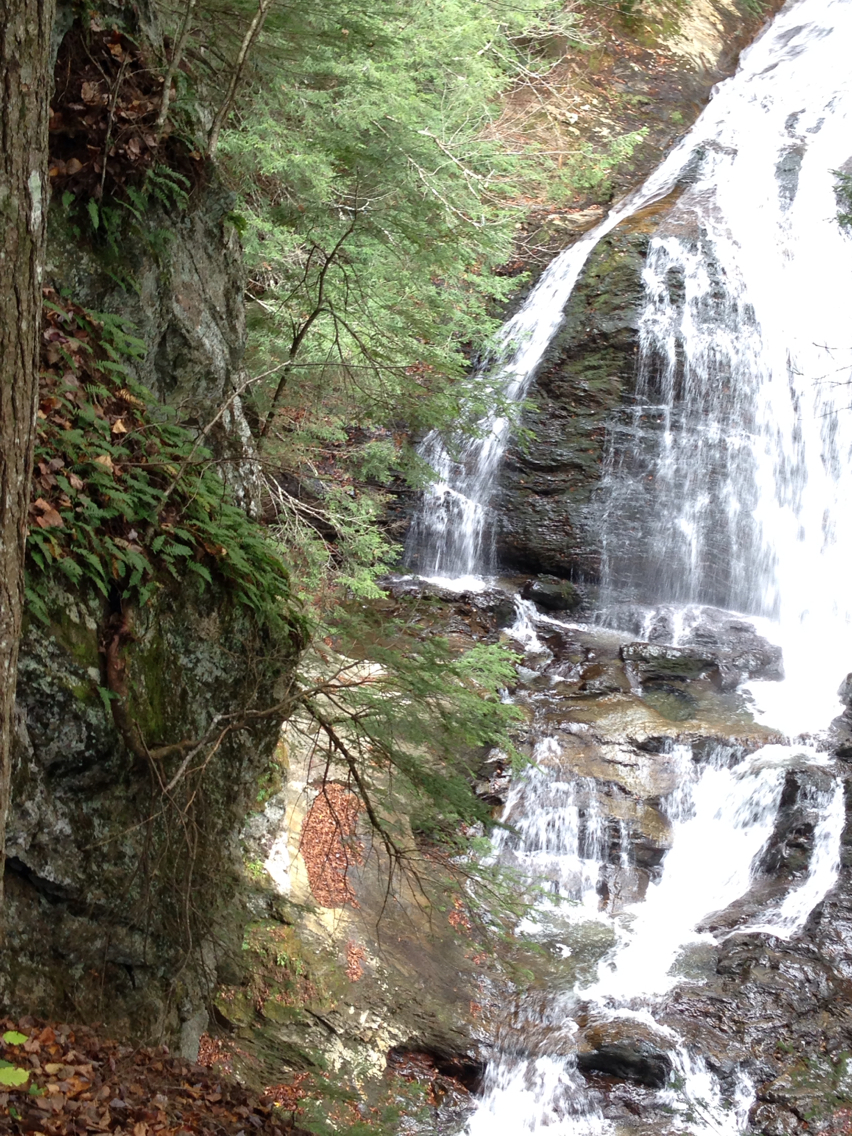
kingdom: Plantae
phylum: Tracheophyta
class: Polypodiopsida
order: Polypodiales
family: Polypodiaceae
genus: Polypodium
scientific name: Polypodium virginianum
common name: American wall fern
